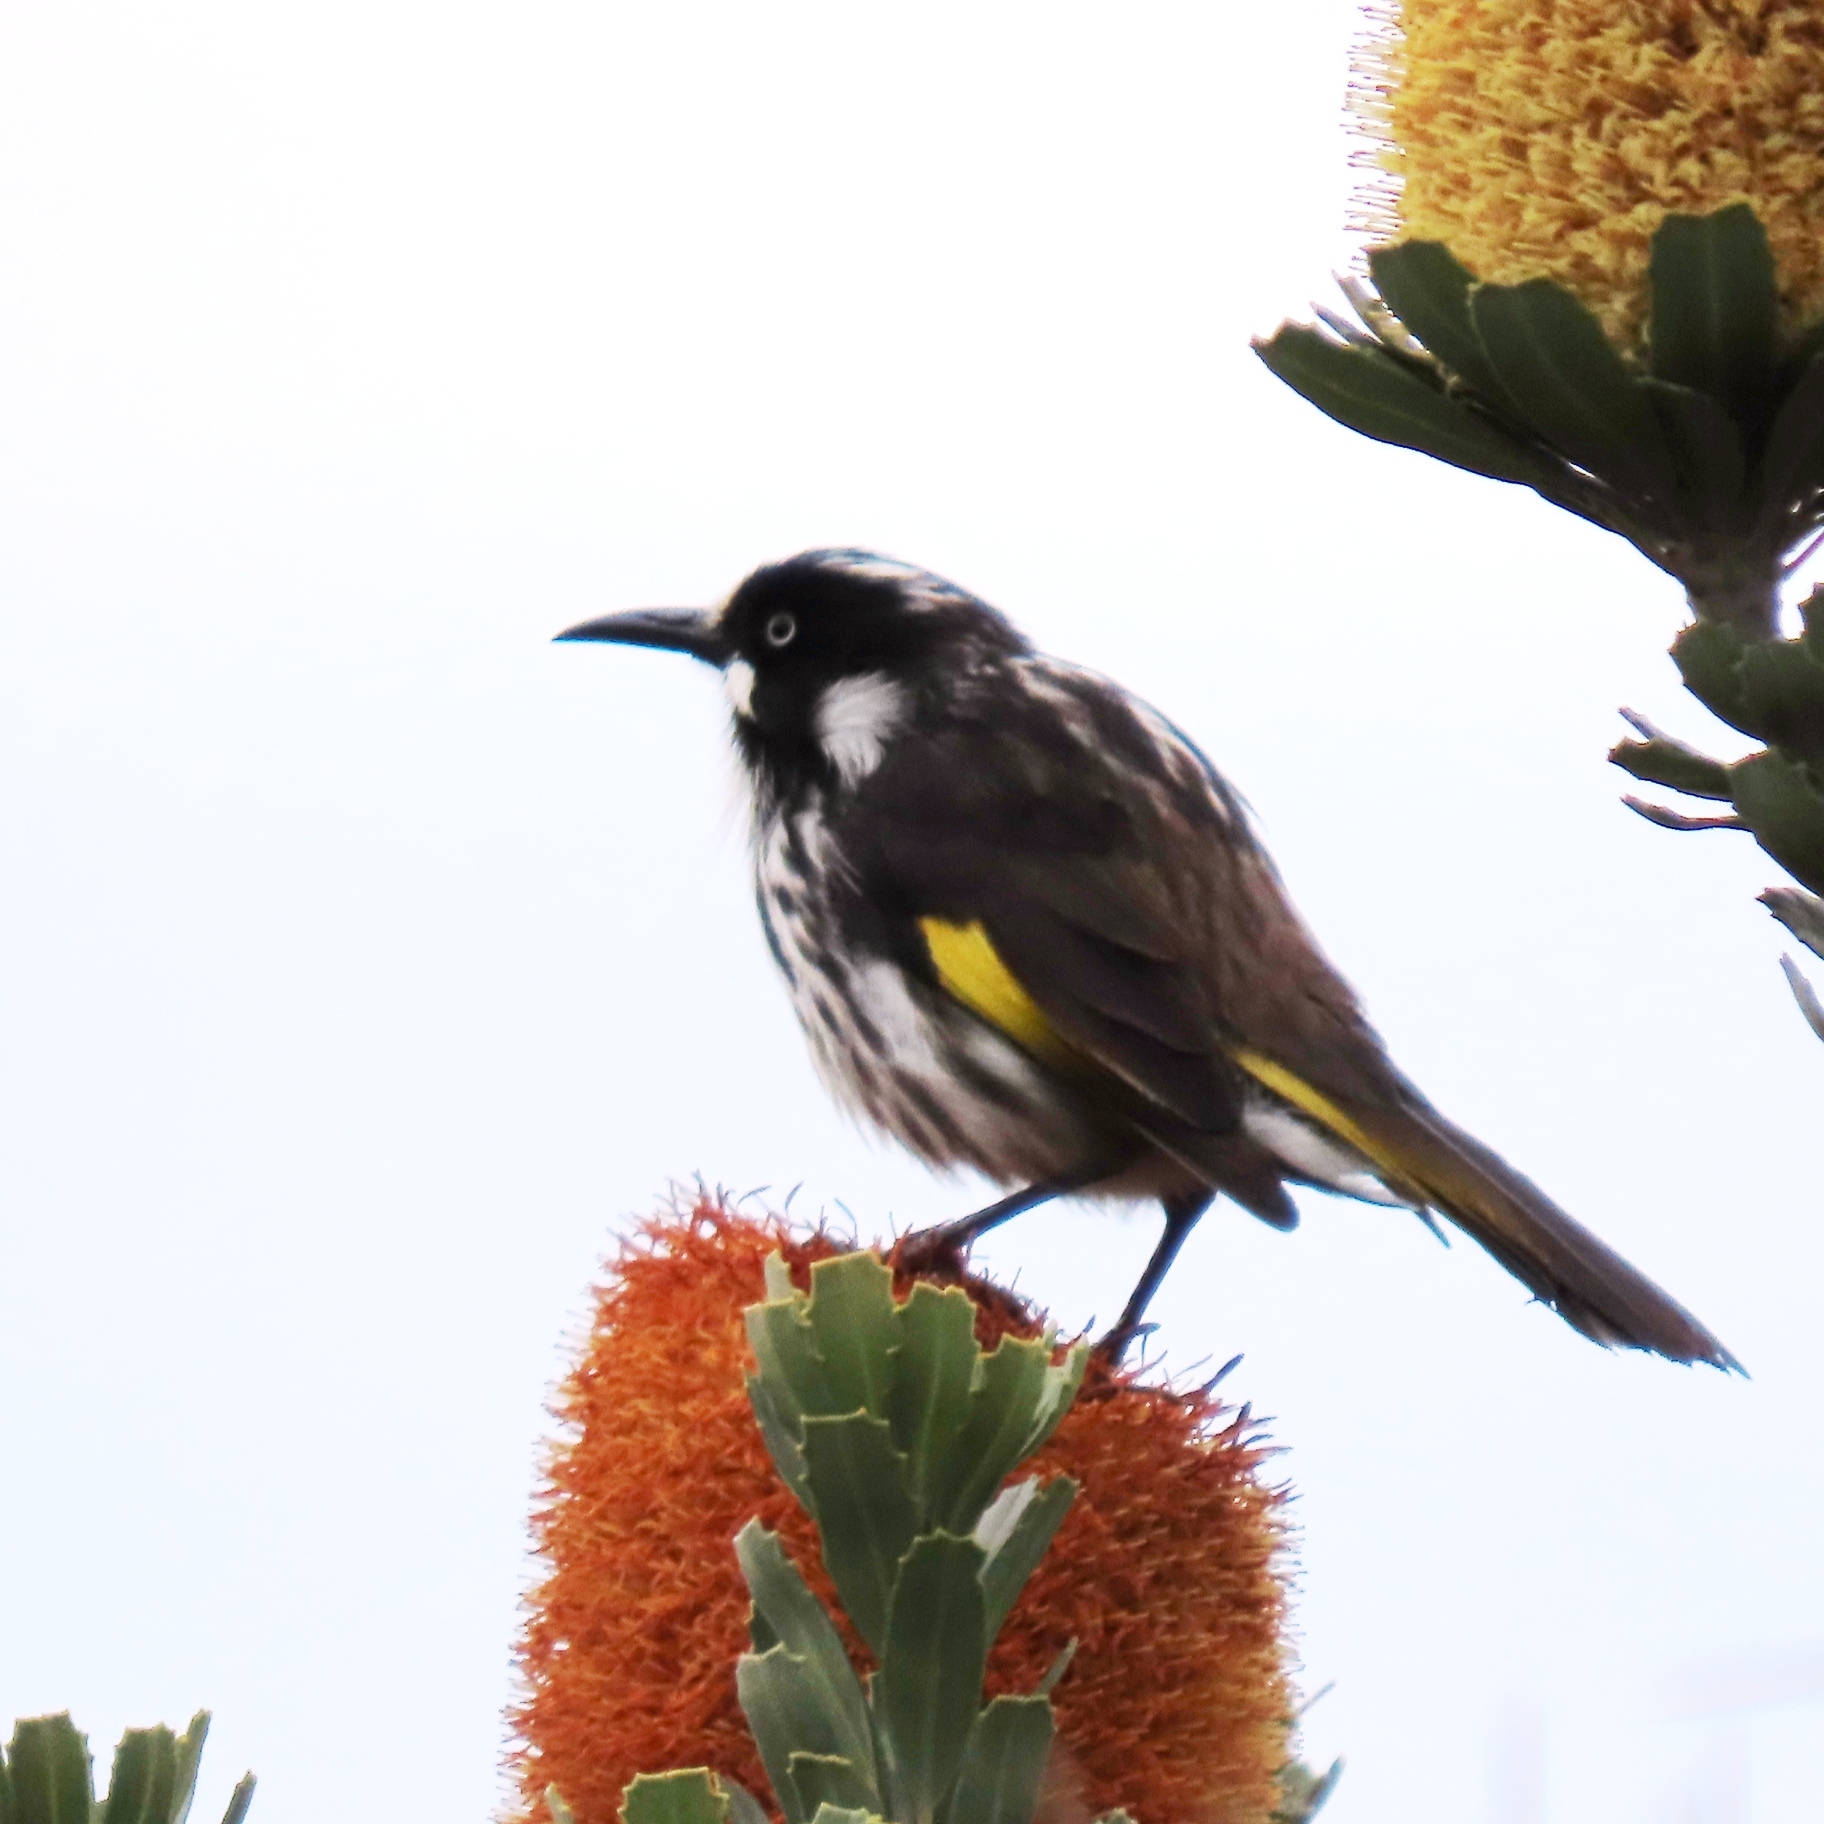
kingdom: Animalia
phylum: Chordata
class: Aves
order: Passeriformes
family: Meliphagidae
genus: Phylidonyris
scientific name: Phylidonyris novaehollandiae
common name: New holland honeyeater
